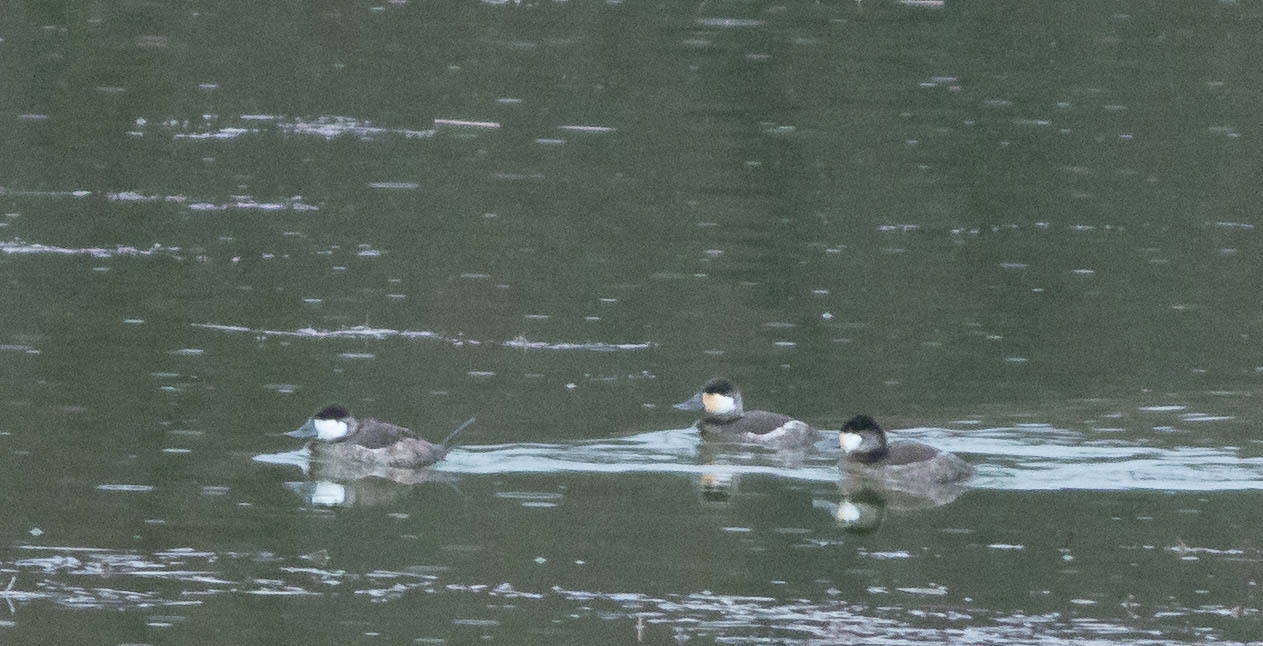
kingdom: Animalia
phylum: Chordata
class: Aves
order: Anseriformes
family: Anatidae
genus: Oxyura
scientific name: Oxyura jamaicensis
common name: Ruddy duck
